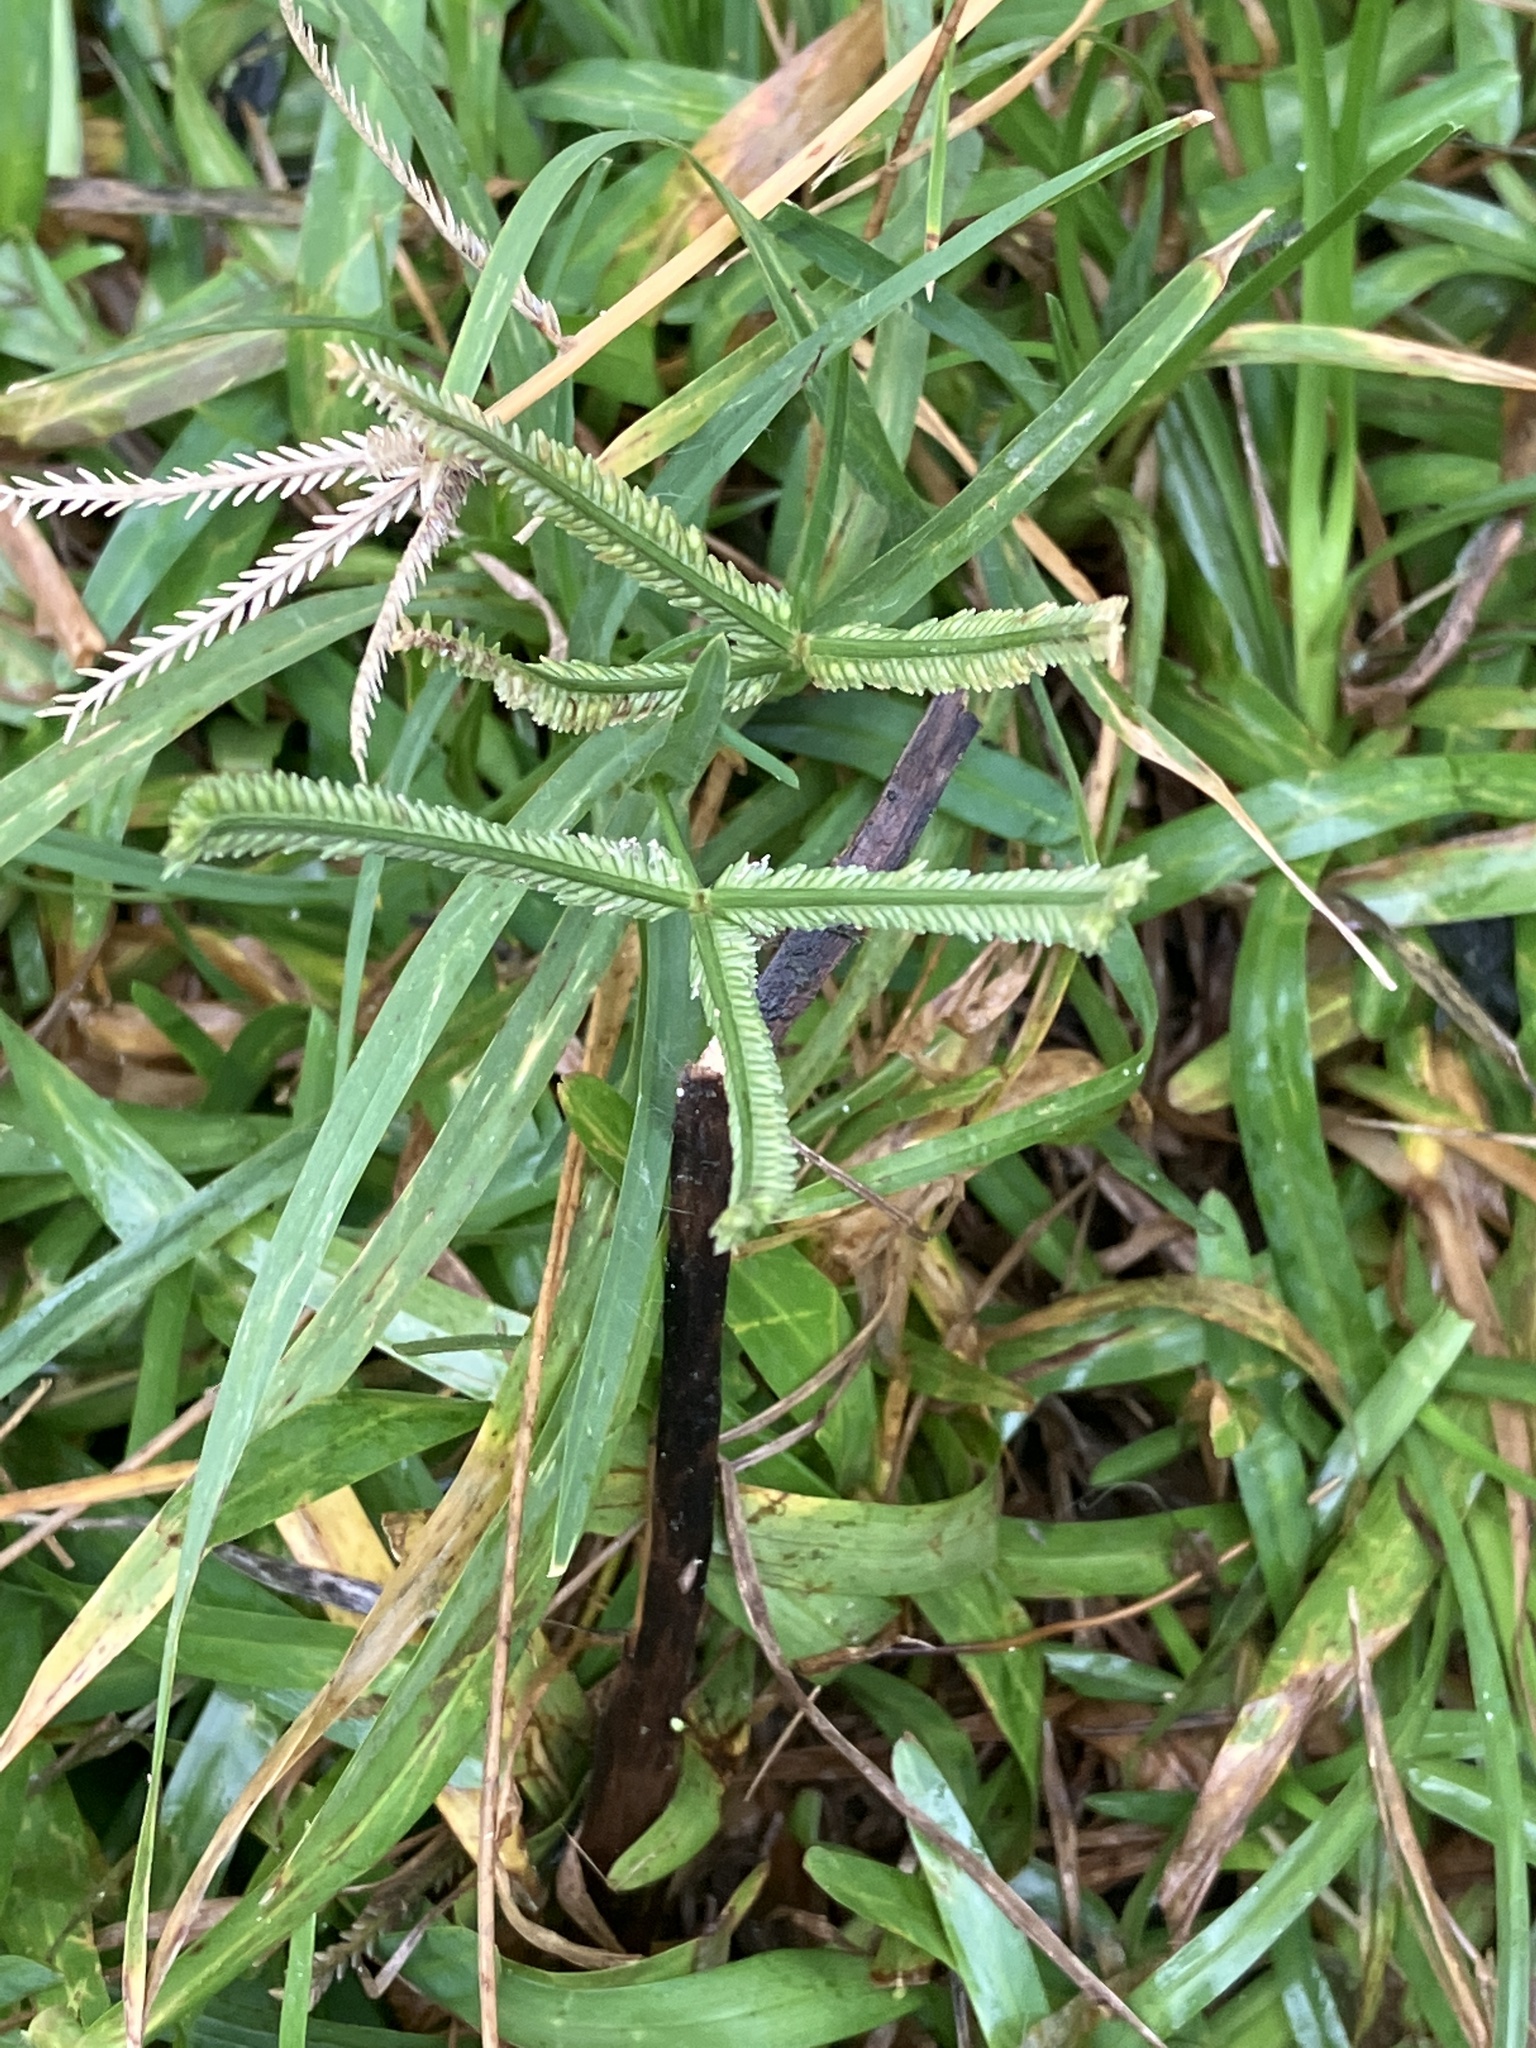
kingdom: Plantae
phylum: Tracheophyta
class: Liliopsida
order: Poales
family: Poaceae
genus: Eleusine
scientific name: Eleusine indica
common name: Yard-grass
